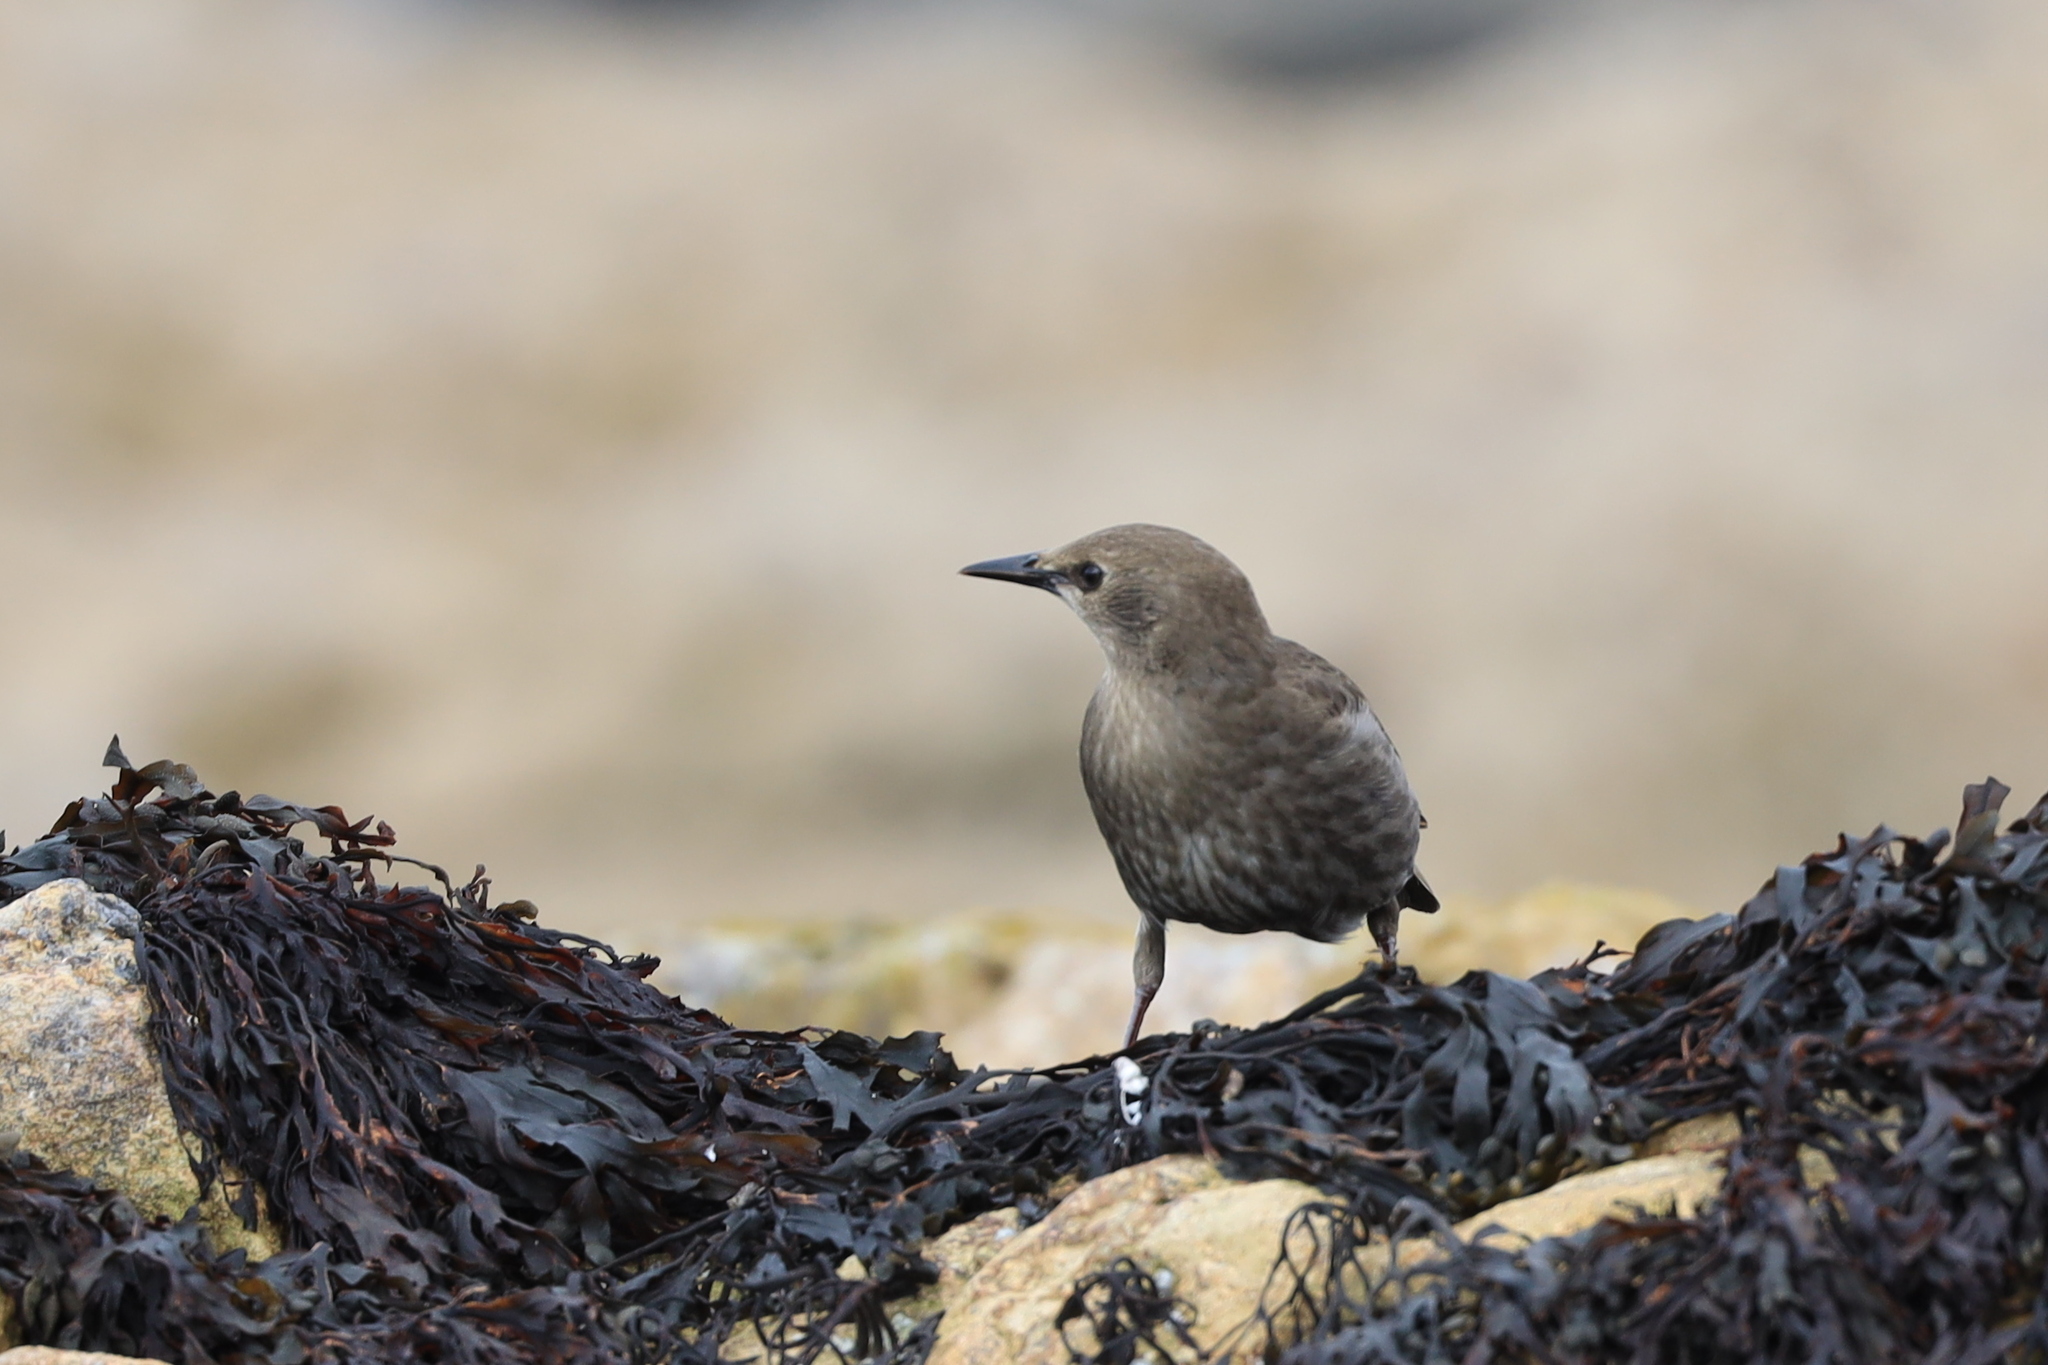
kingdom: Animalia
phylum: Chordata
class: Aves
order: Passeriformes
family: Sturnidae
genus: Sturnus
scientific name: Sturnus vulgaris
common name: Common starling
